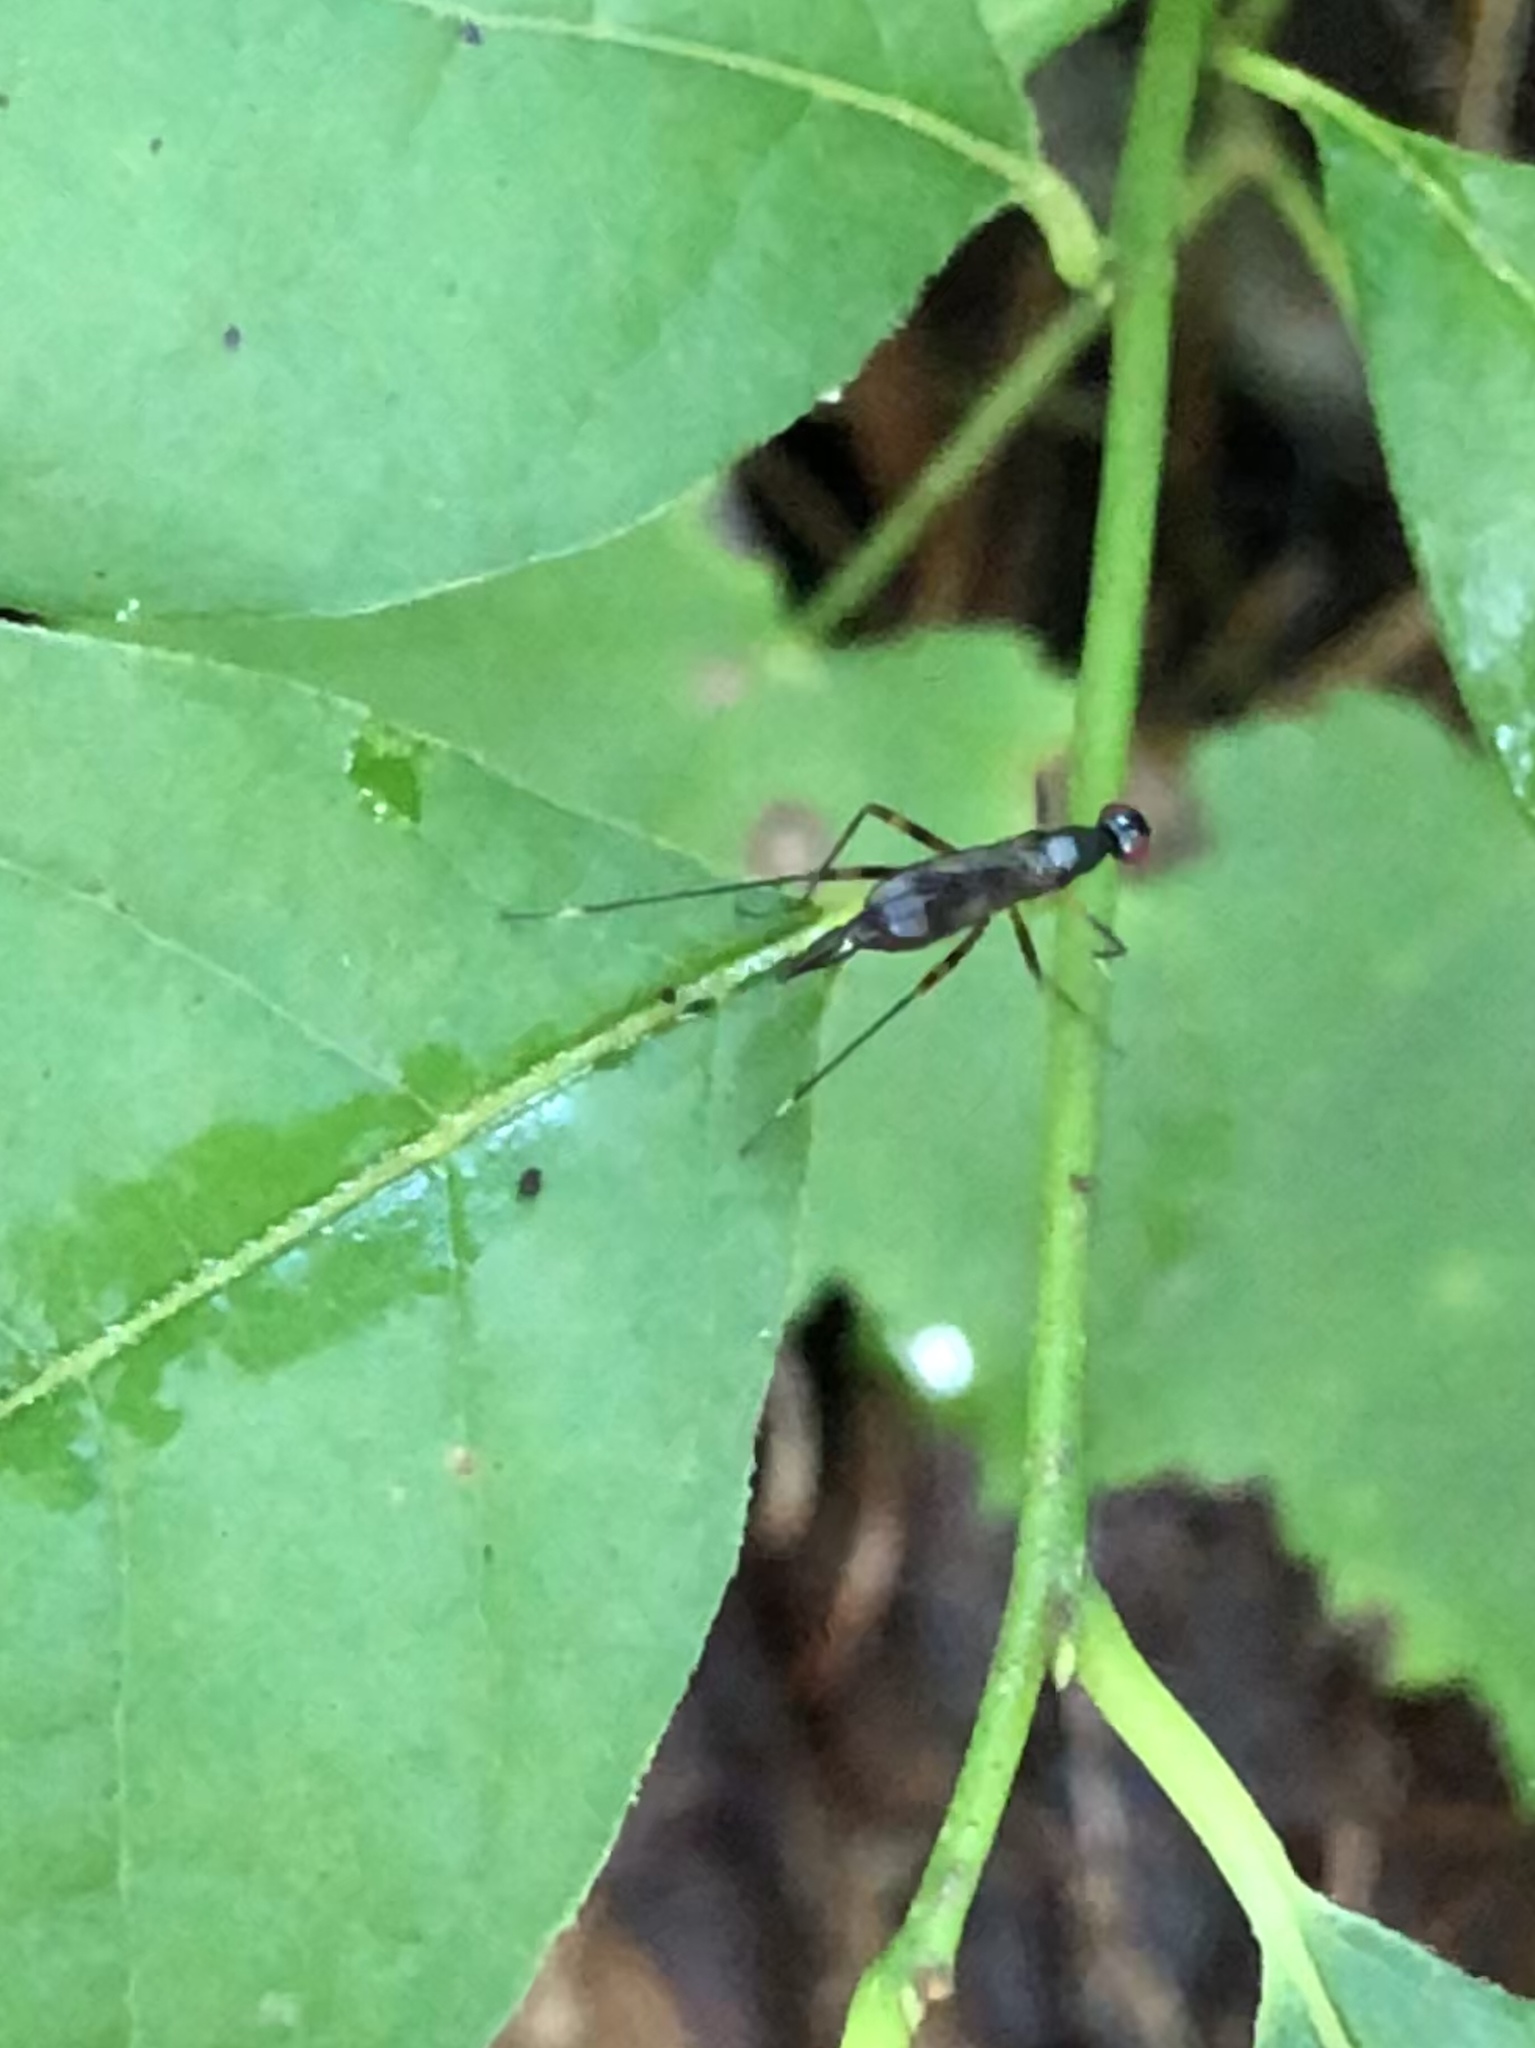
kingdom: Animalia
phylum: Arthropoda
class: Insecta
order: Diptera
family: Micropezidae
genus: Rainieria
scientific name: Rainieria antennaepes
